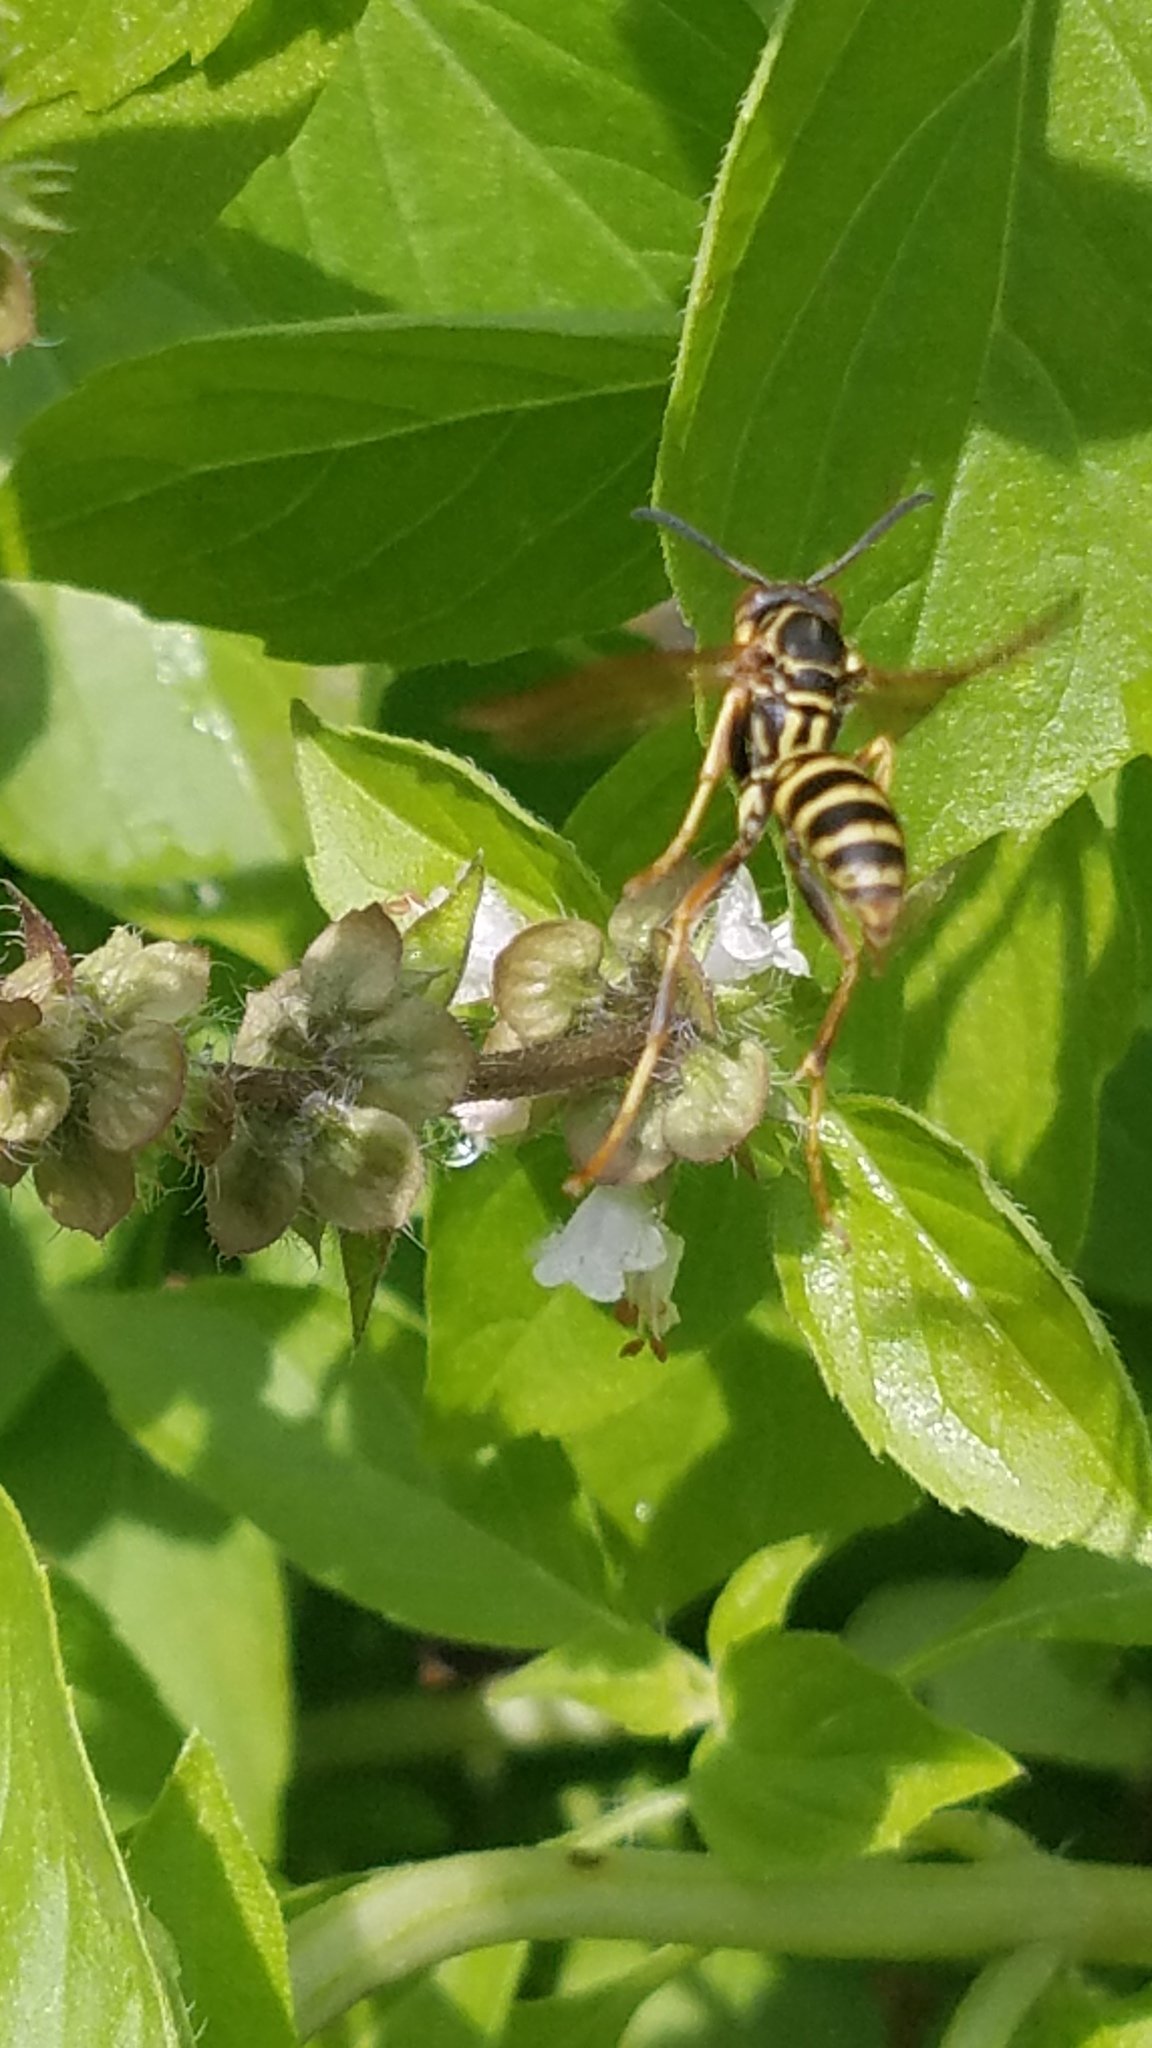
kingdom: Animalia
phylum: Arthropoda
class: Insecta
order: Hymenoptera
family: Eumenidae
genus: Polistes
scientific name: Polistes fuscatus
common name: Dark paper wasp
